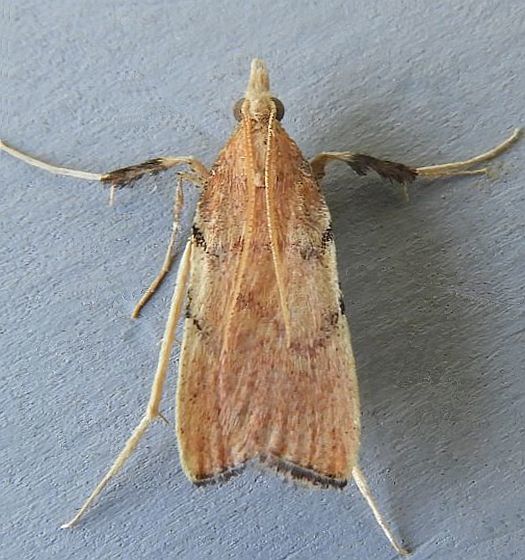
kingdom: Animalia
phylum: Arthropoda
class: Insecta
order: Lepidoptera
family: Pyralidae
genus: Paragalasa
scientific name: Paragalasa exospinalis
